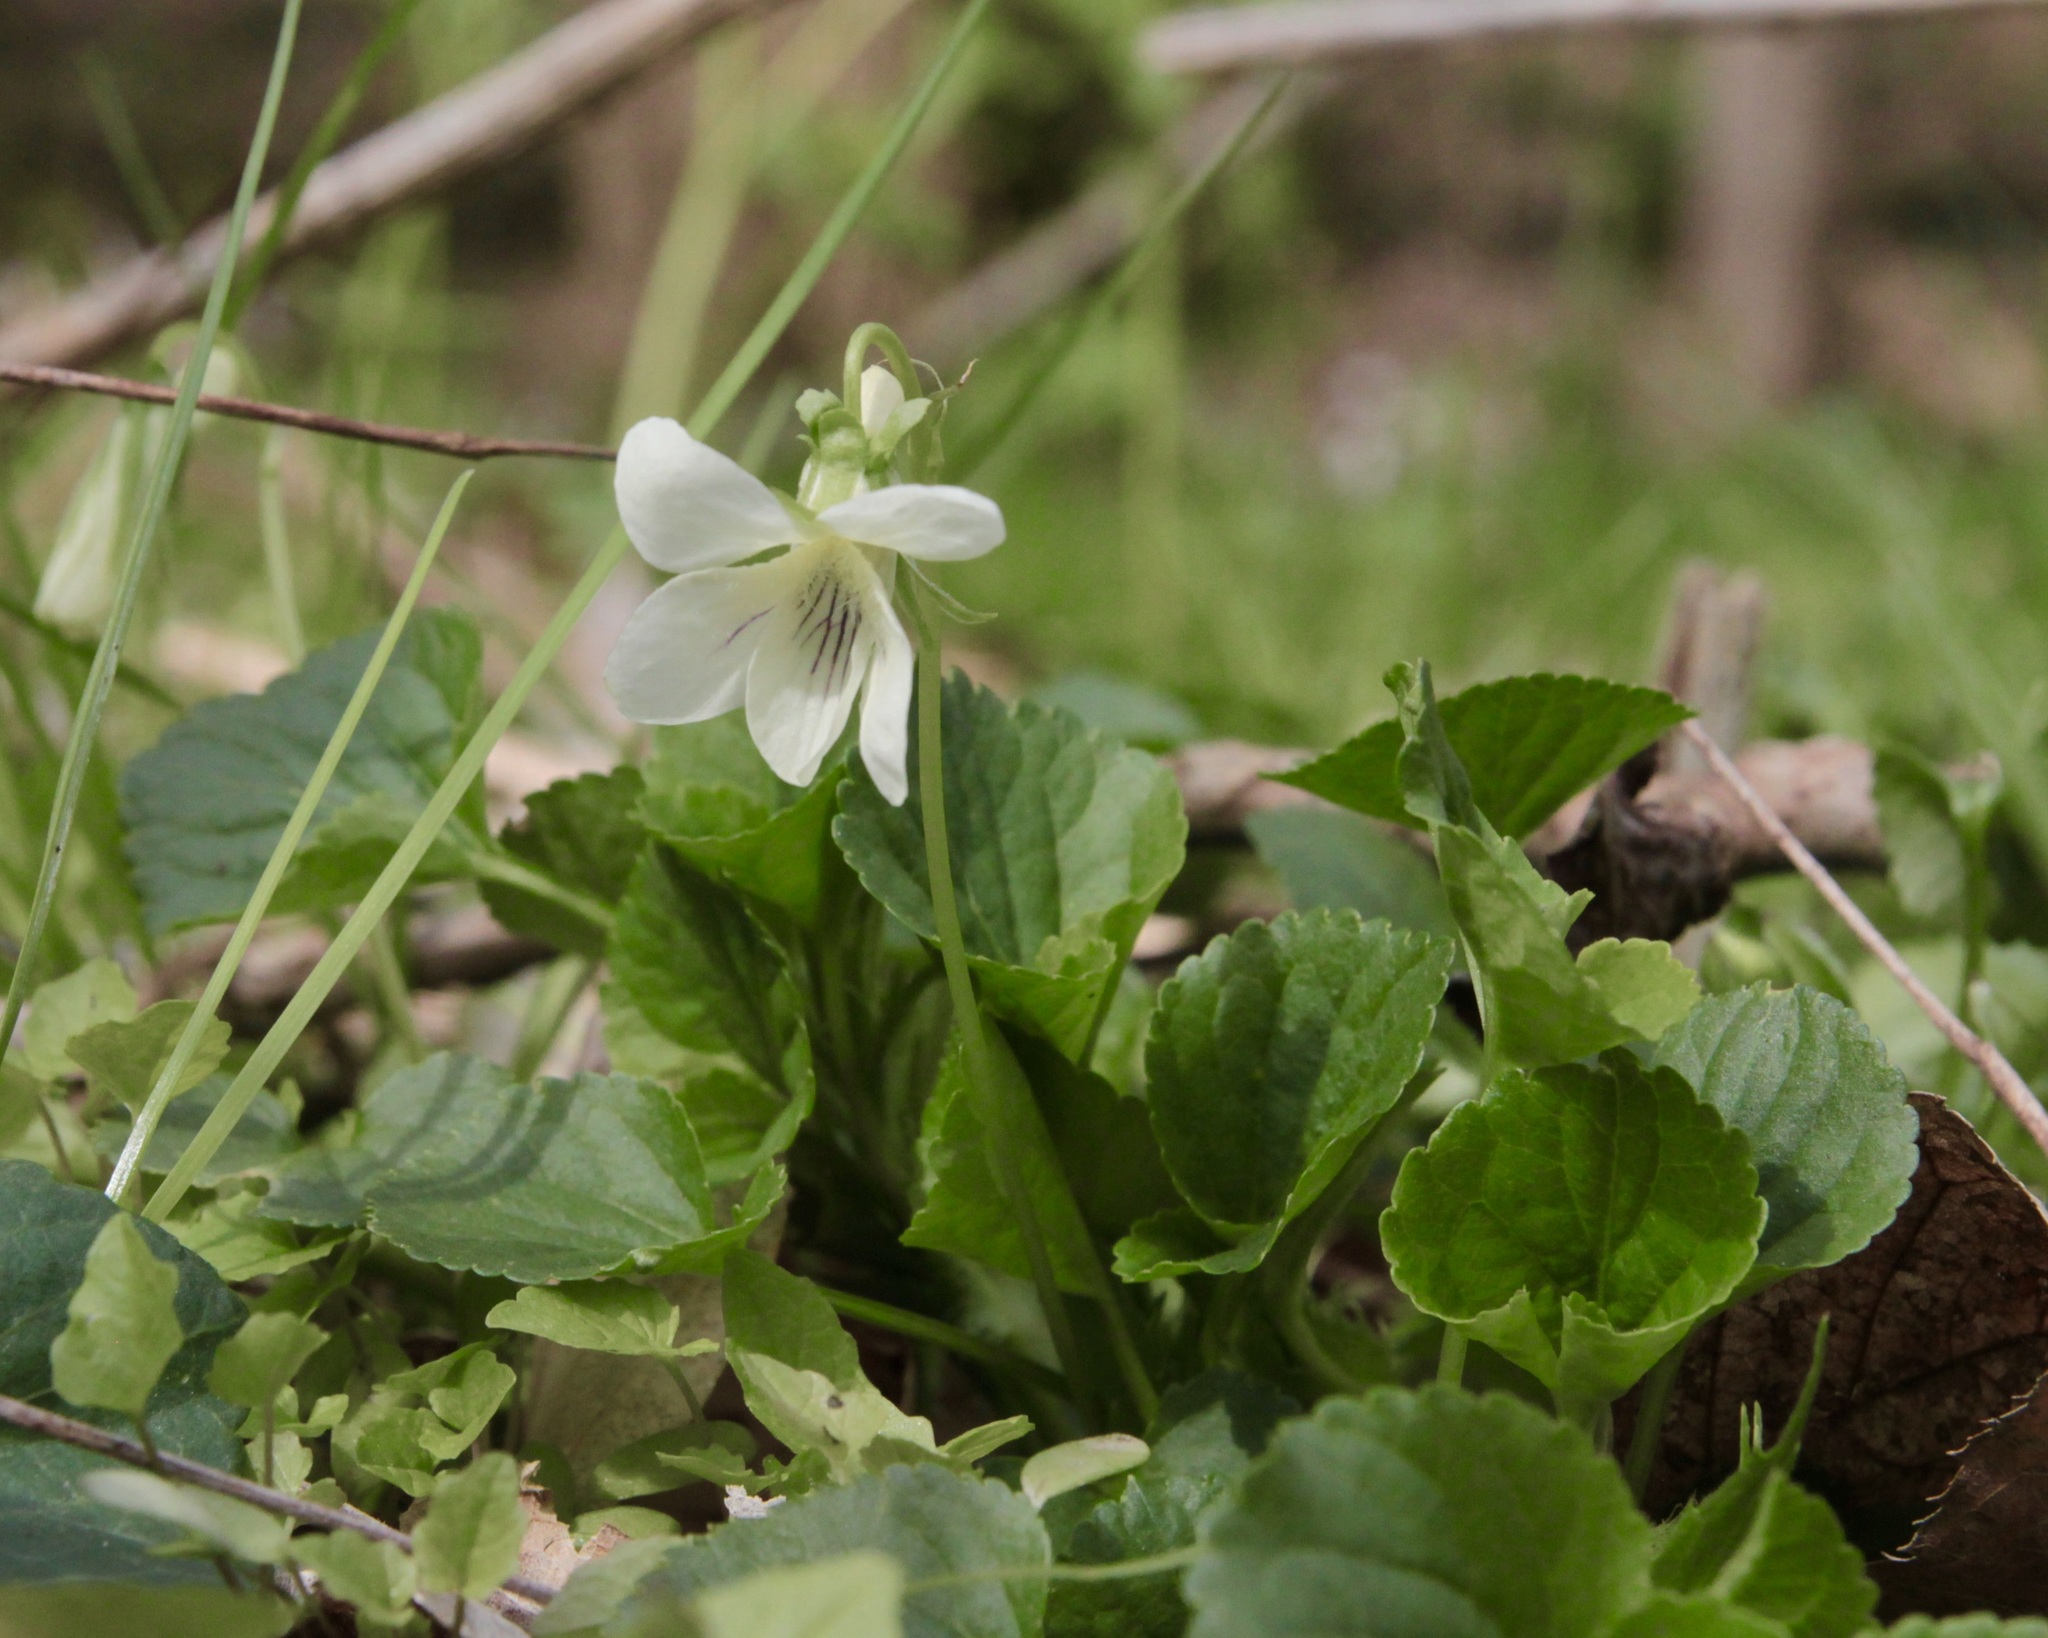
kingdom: Plantae
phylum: Tracheophyta
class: Magnoliopsida
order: Malpighiales
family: Violaceae
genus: Viola
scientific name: Viola striata
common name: Cream violet
